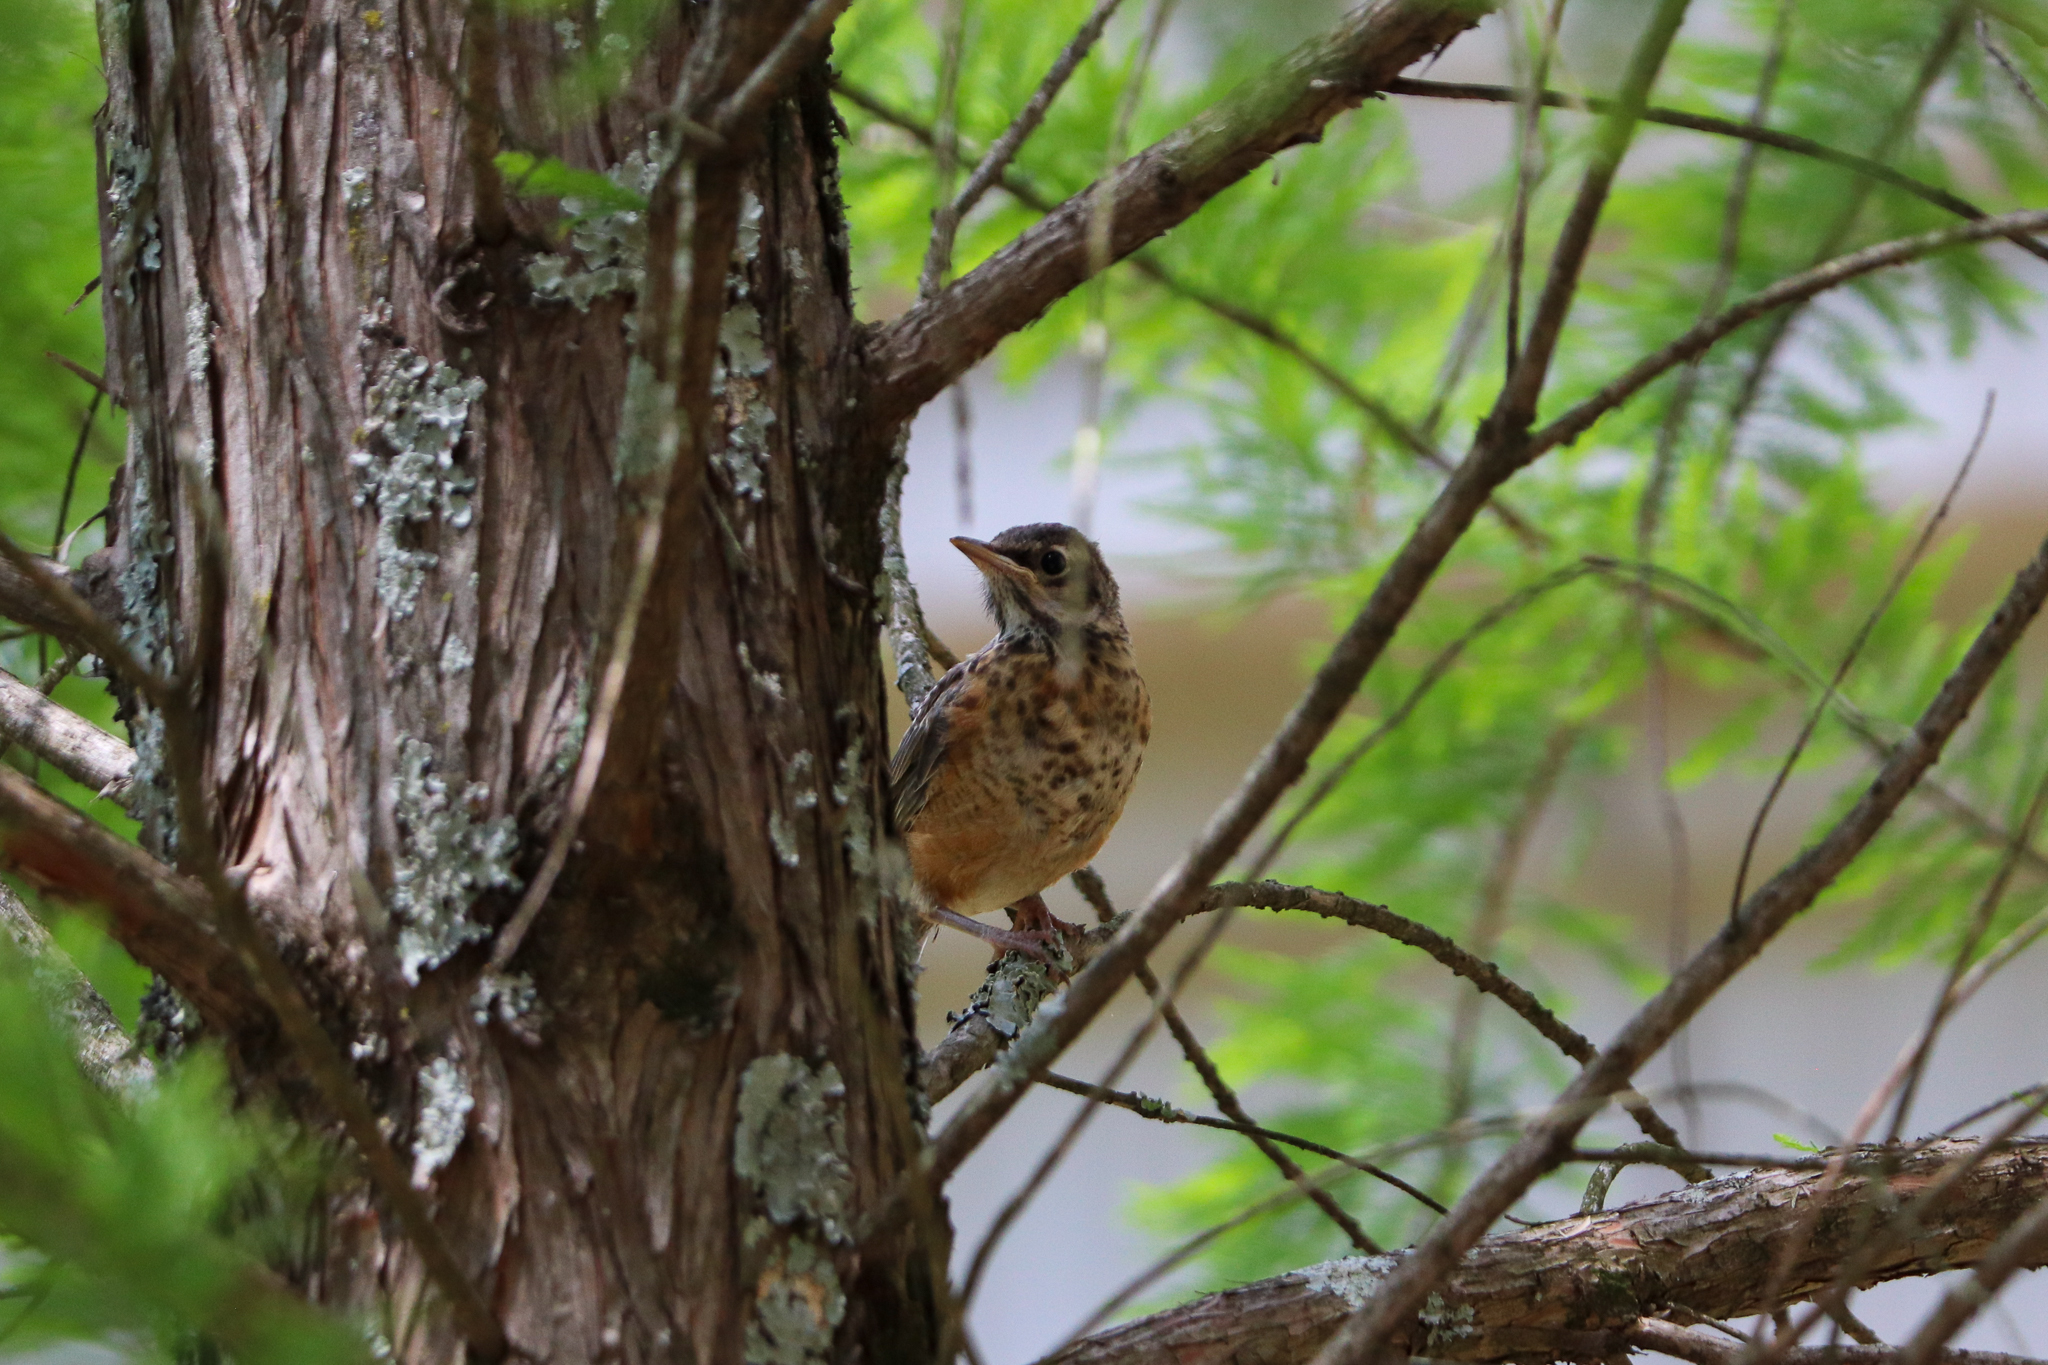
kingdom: Animalia
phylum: Chordata
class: Aves
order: Passeriformes
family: Turdidae
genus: Turdus
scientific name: Turdus migratorius
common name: American robin
